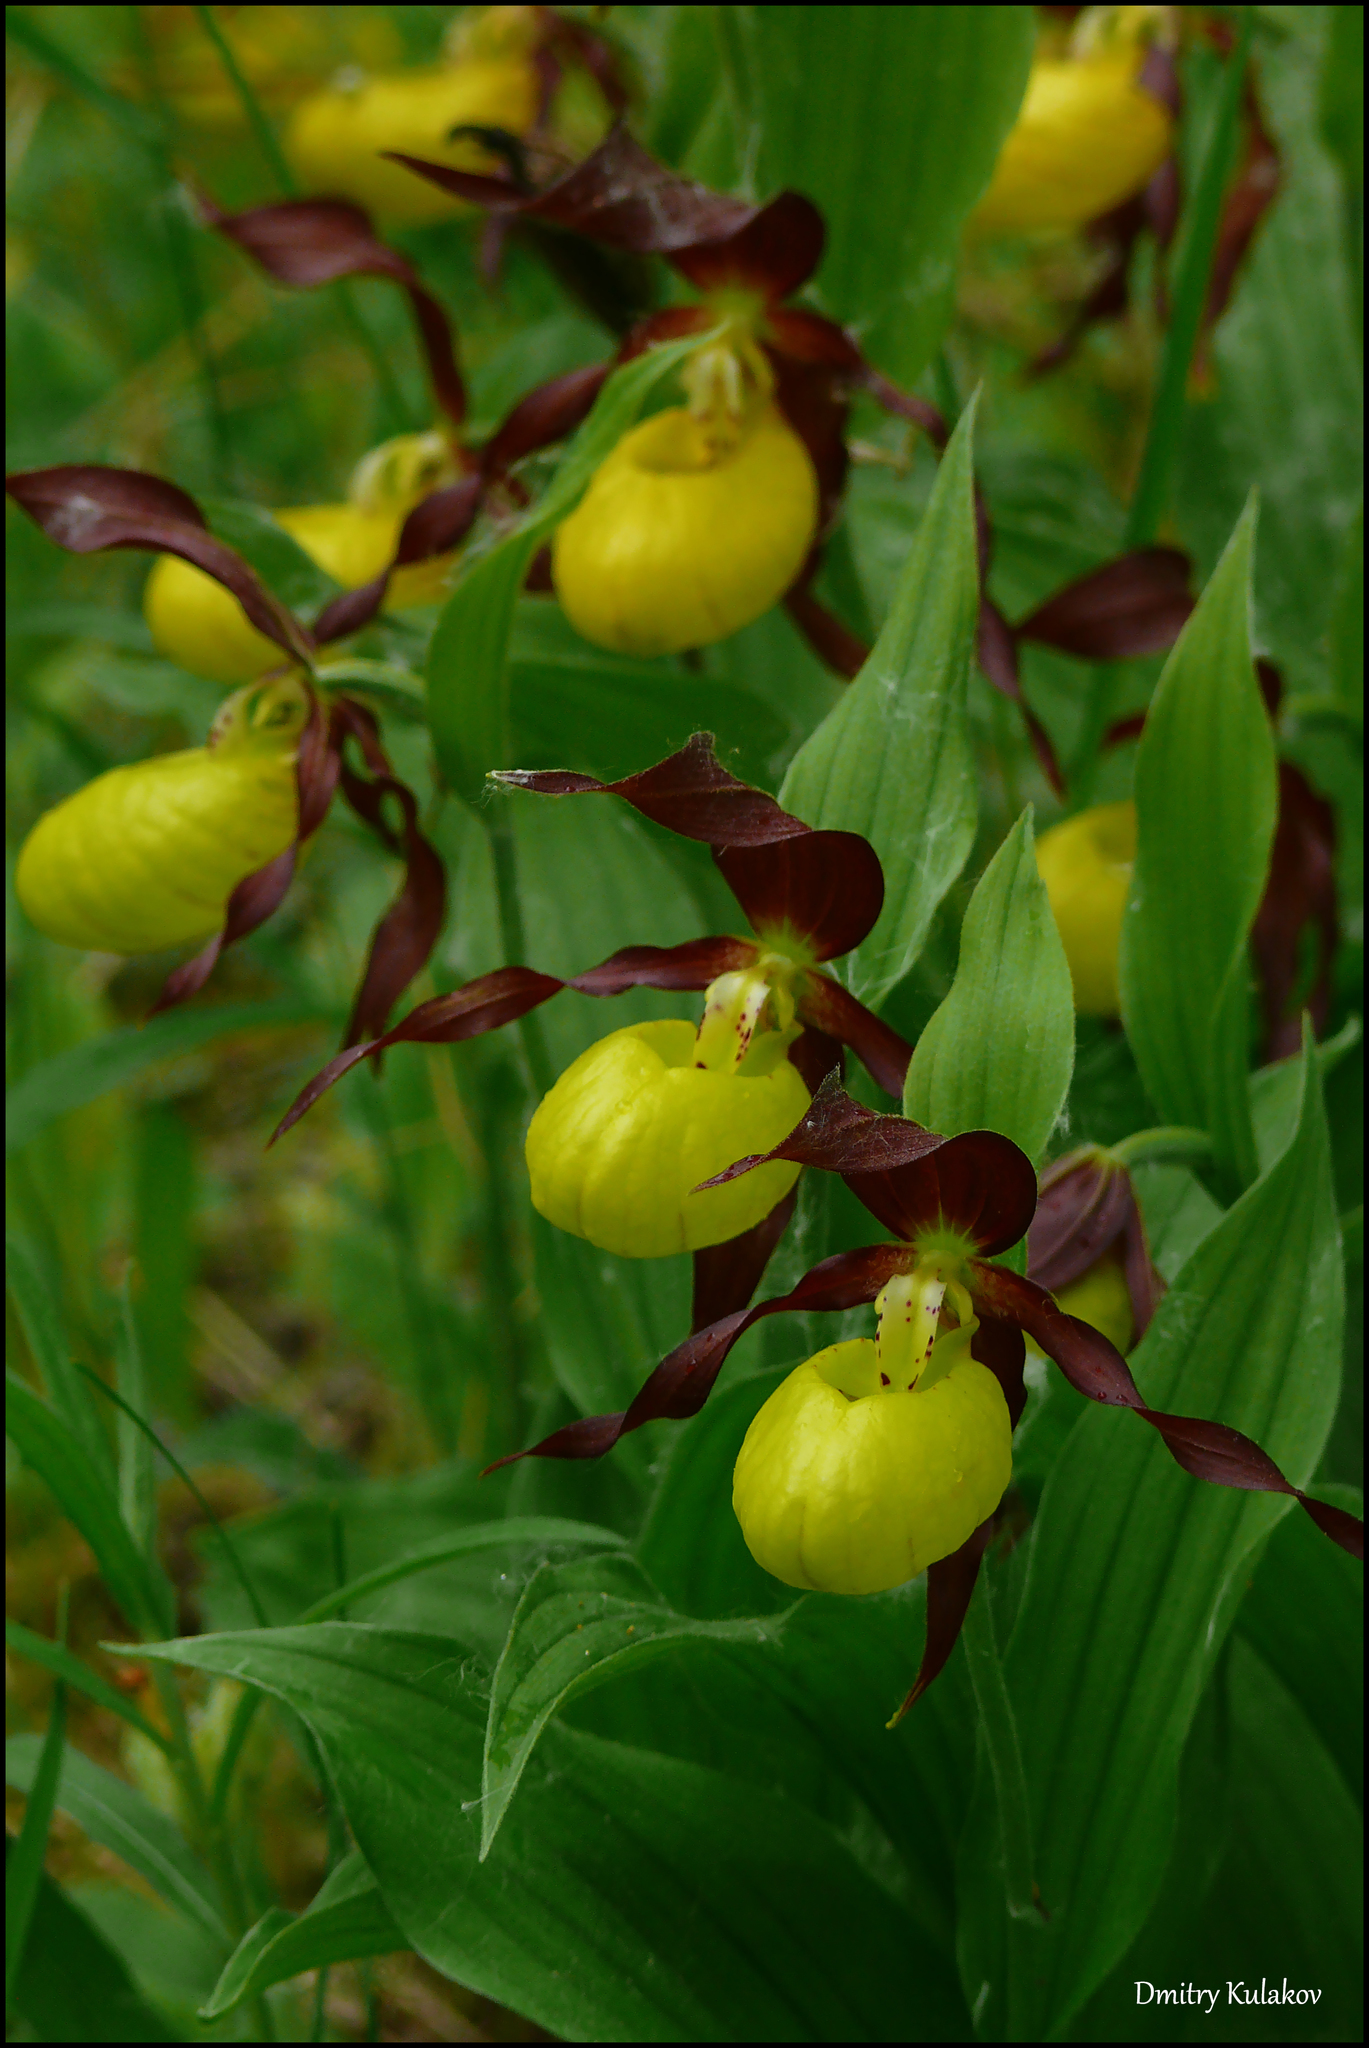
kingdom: Plantae
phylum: Tracheophyta
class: Liliopsida
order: Asparagales
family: Orchidaceae
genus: Cypripedium
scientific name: Cypripedium calceolus
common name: Lady's-slipper
